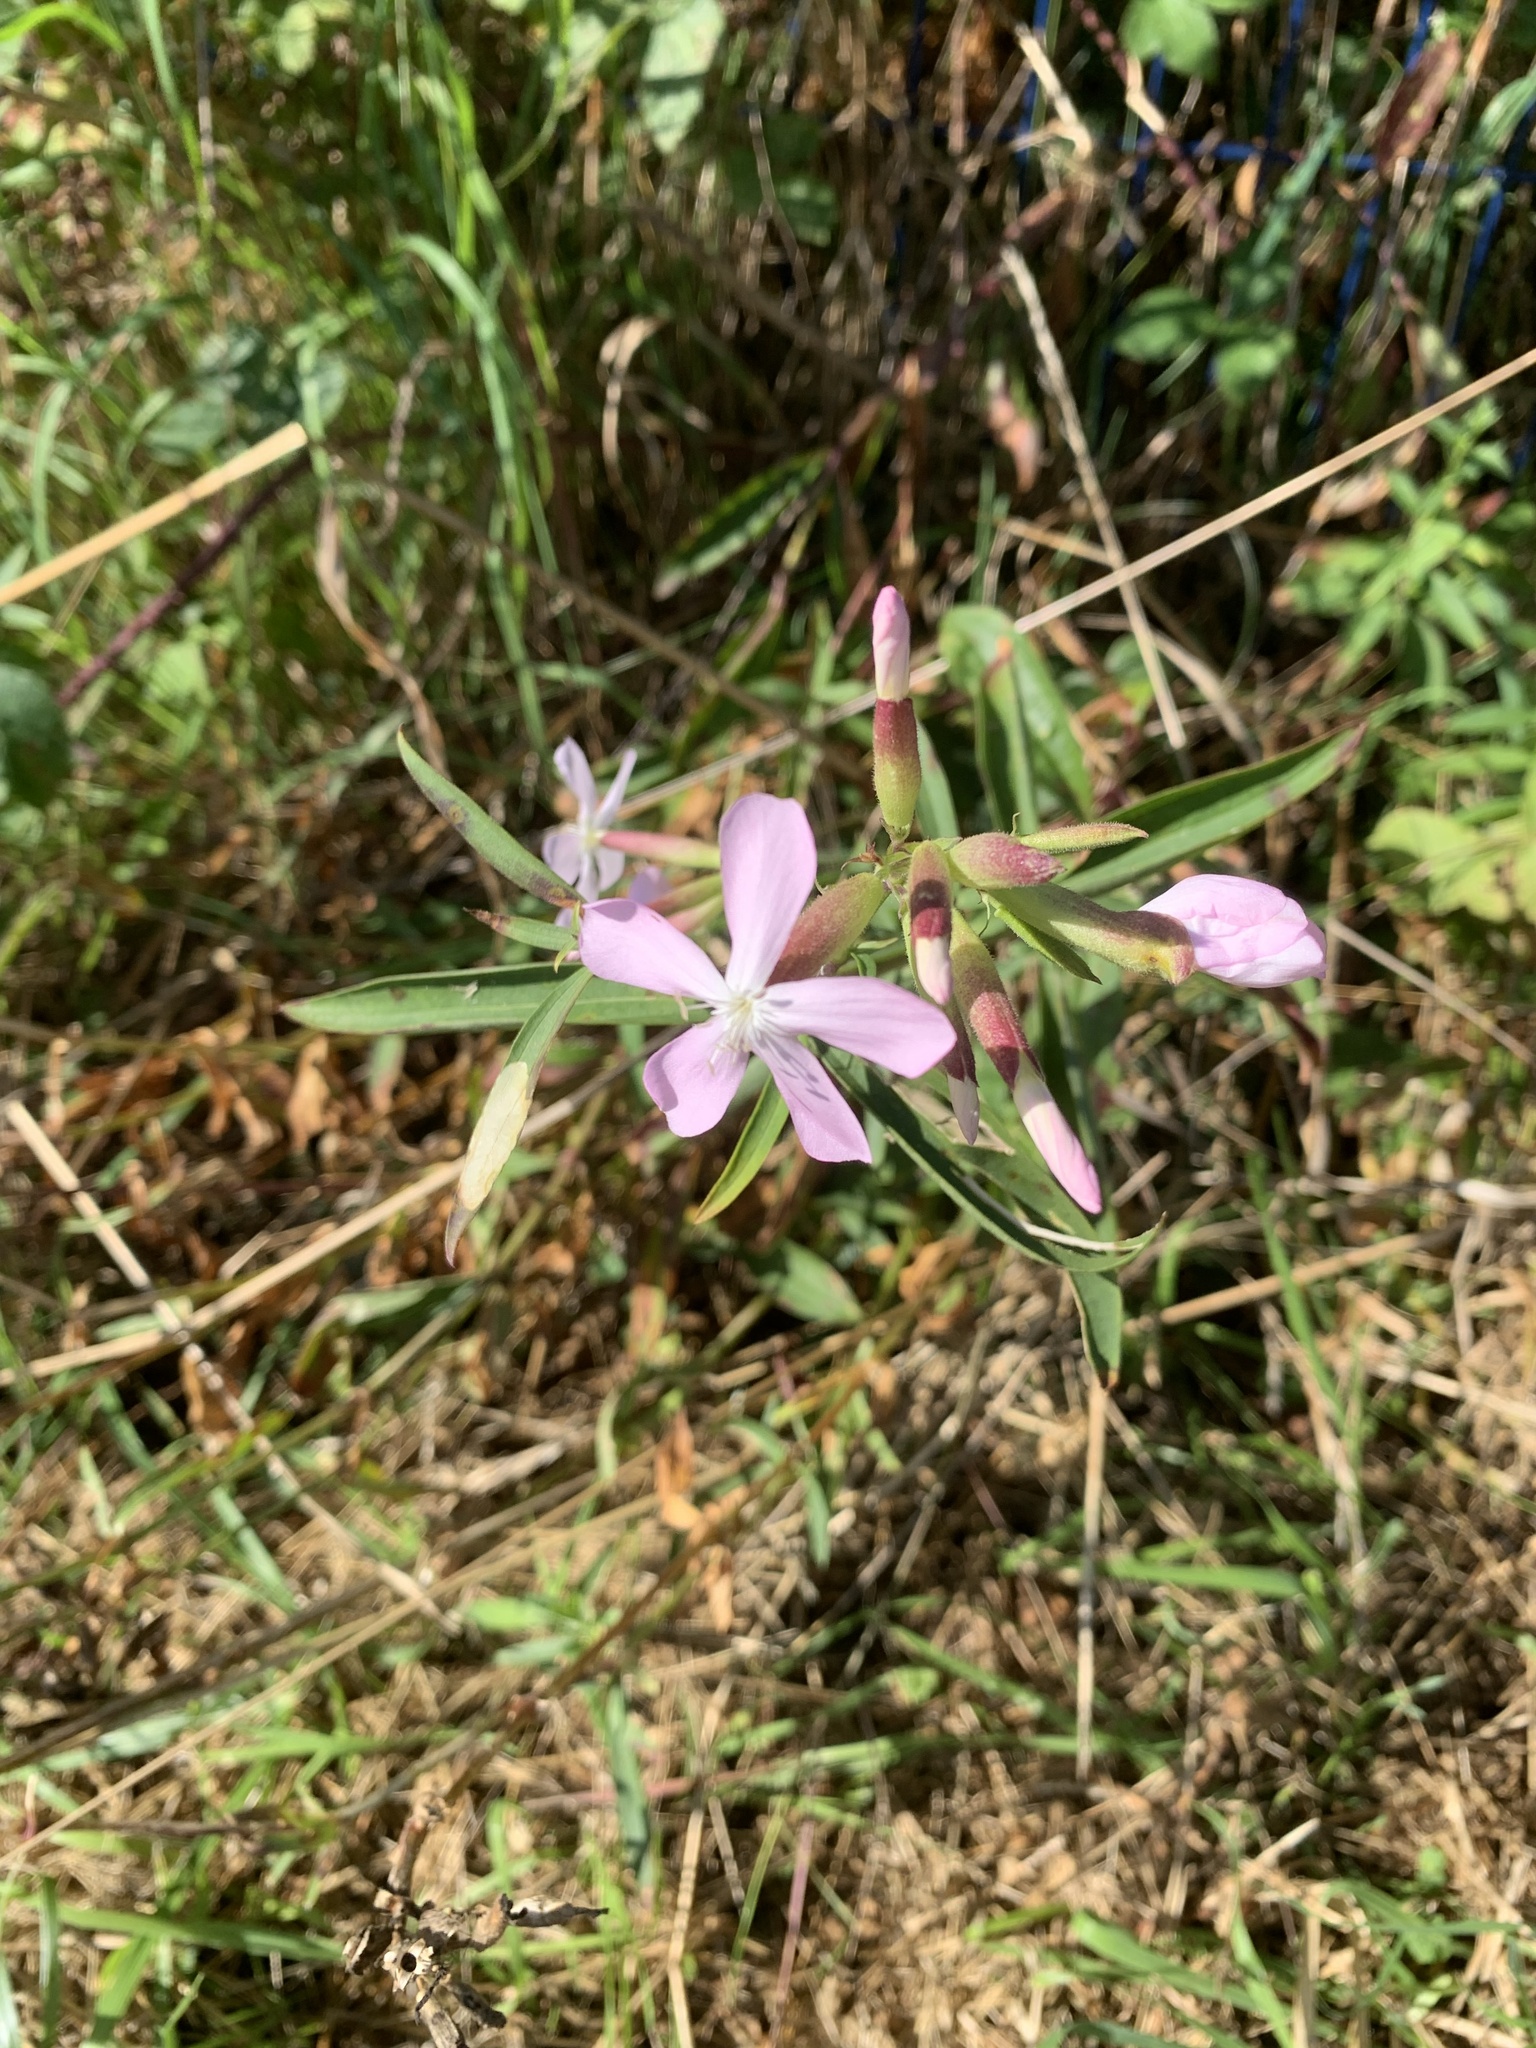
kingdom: Plantae
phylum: Tracheophyta
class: Magnoliopsida
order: Caryophyllales
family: Caryophyllaceae
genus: Saponaria
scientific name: Saponaria officinalis
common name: Soapwort
